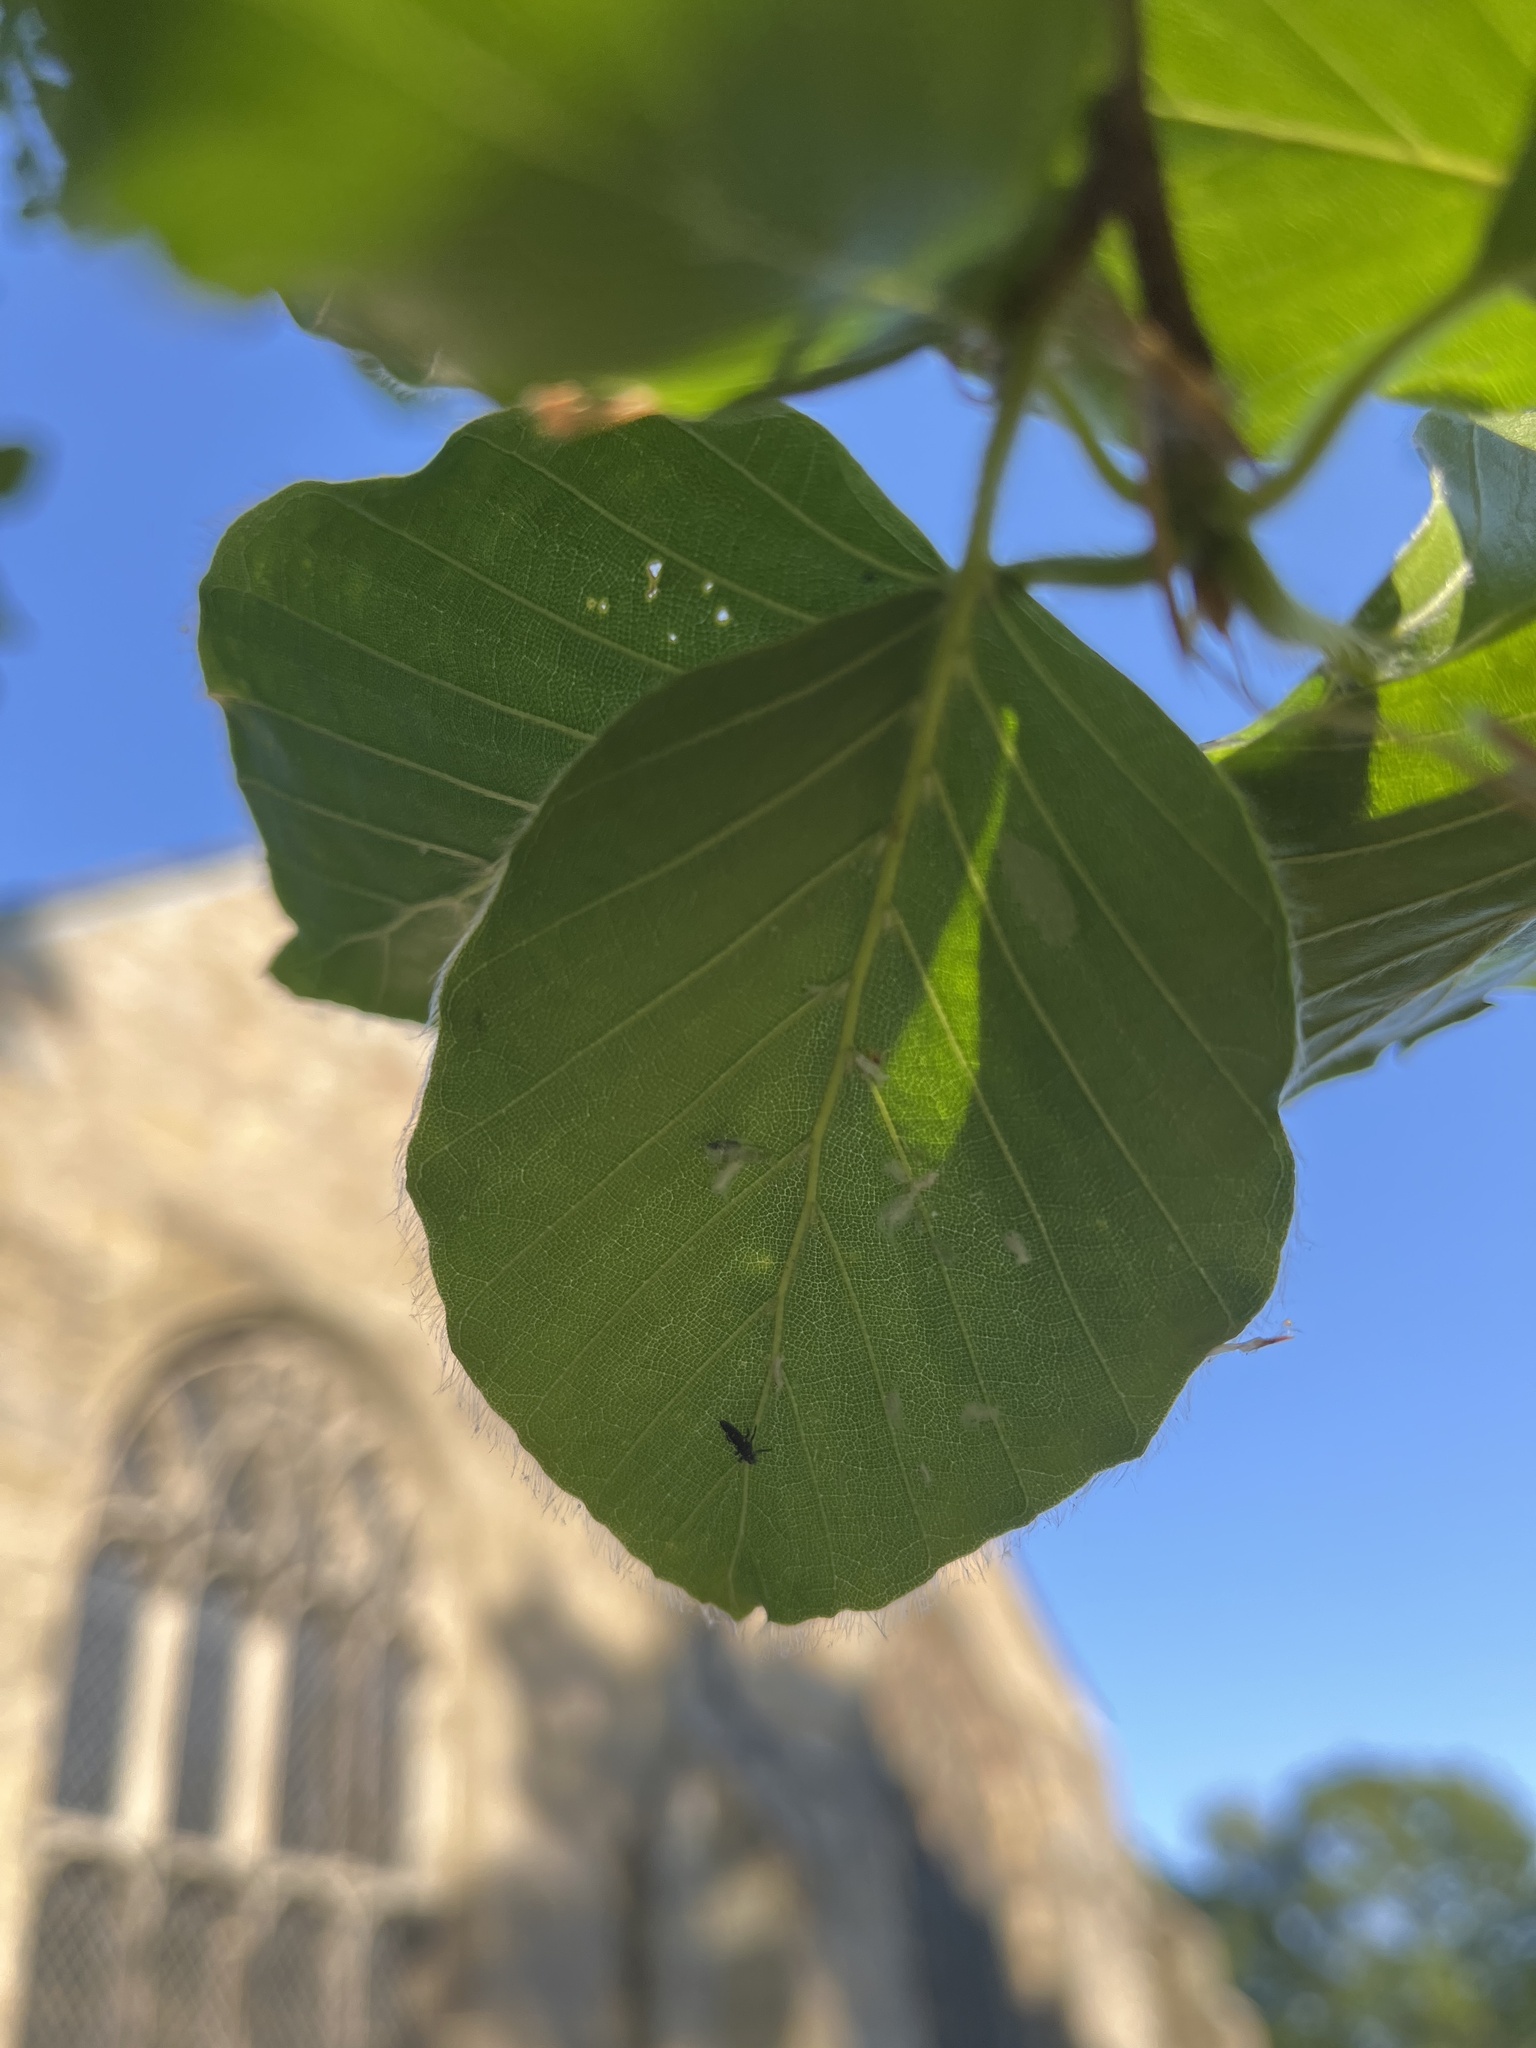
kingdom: Animalia
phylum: Arthropoda
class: Insecta
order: Hemiptera
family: Aphididae
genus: Phyllaphis
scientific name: Phyllaphis fagi
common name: Beech aphid
